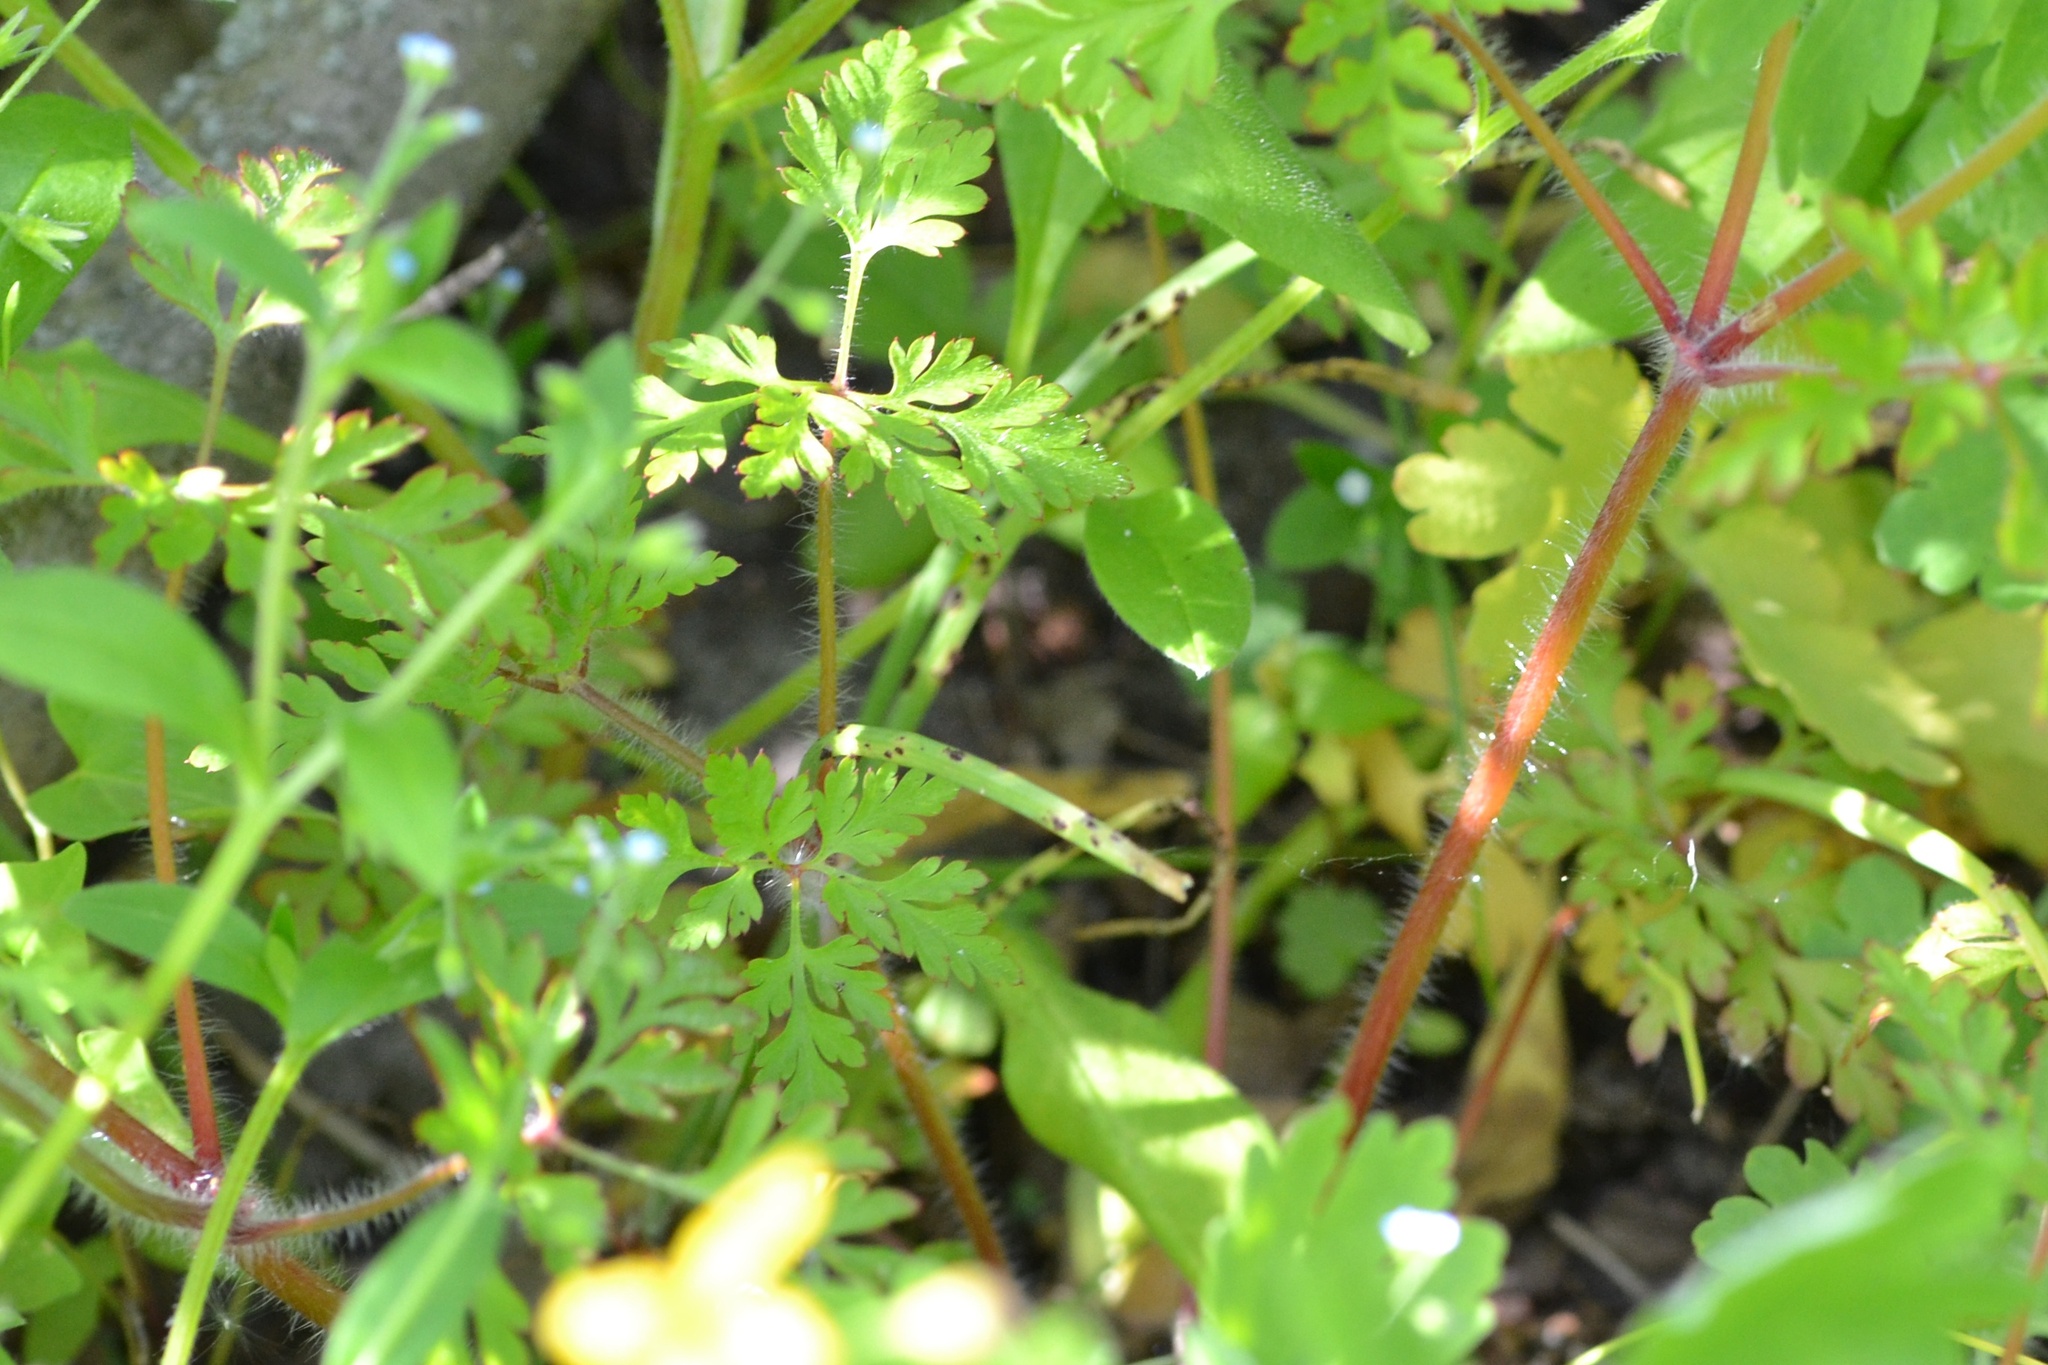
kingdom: Plantae
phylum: Tracheophyta
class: Magnoliopsida
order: Geraniales
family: Geraniaceae
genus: Geranium
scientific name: Geranium robertianum
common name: Herb-robert
